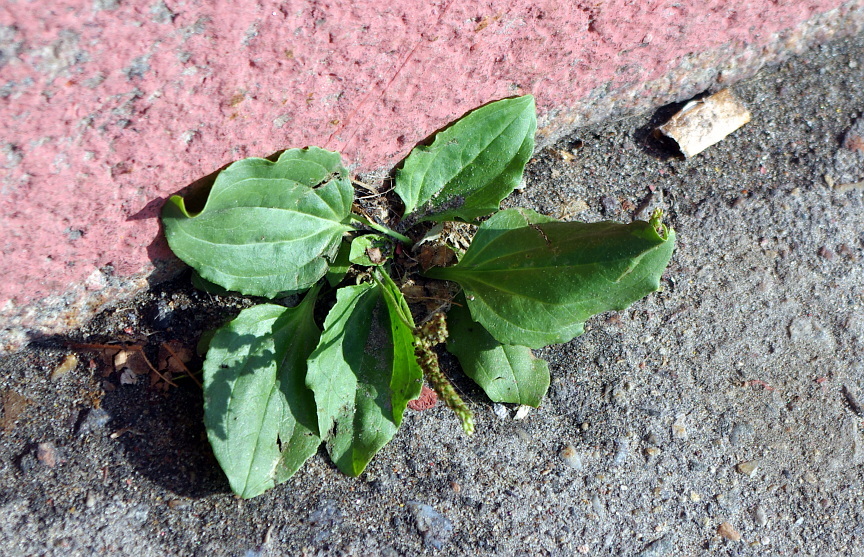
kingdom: Plantae
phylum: Tracheophyta
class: Magnoliopsida
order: Lamiales
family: Plantaginaceae
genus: Plantago
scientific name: Plantago major
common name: Common plantain
